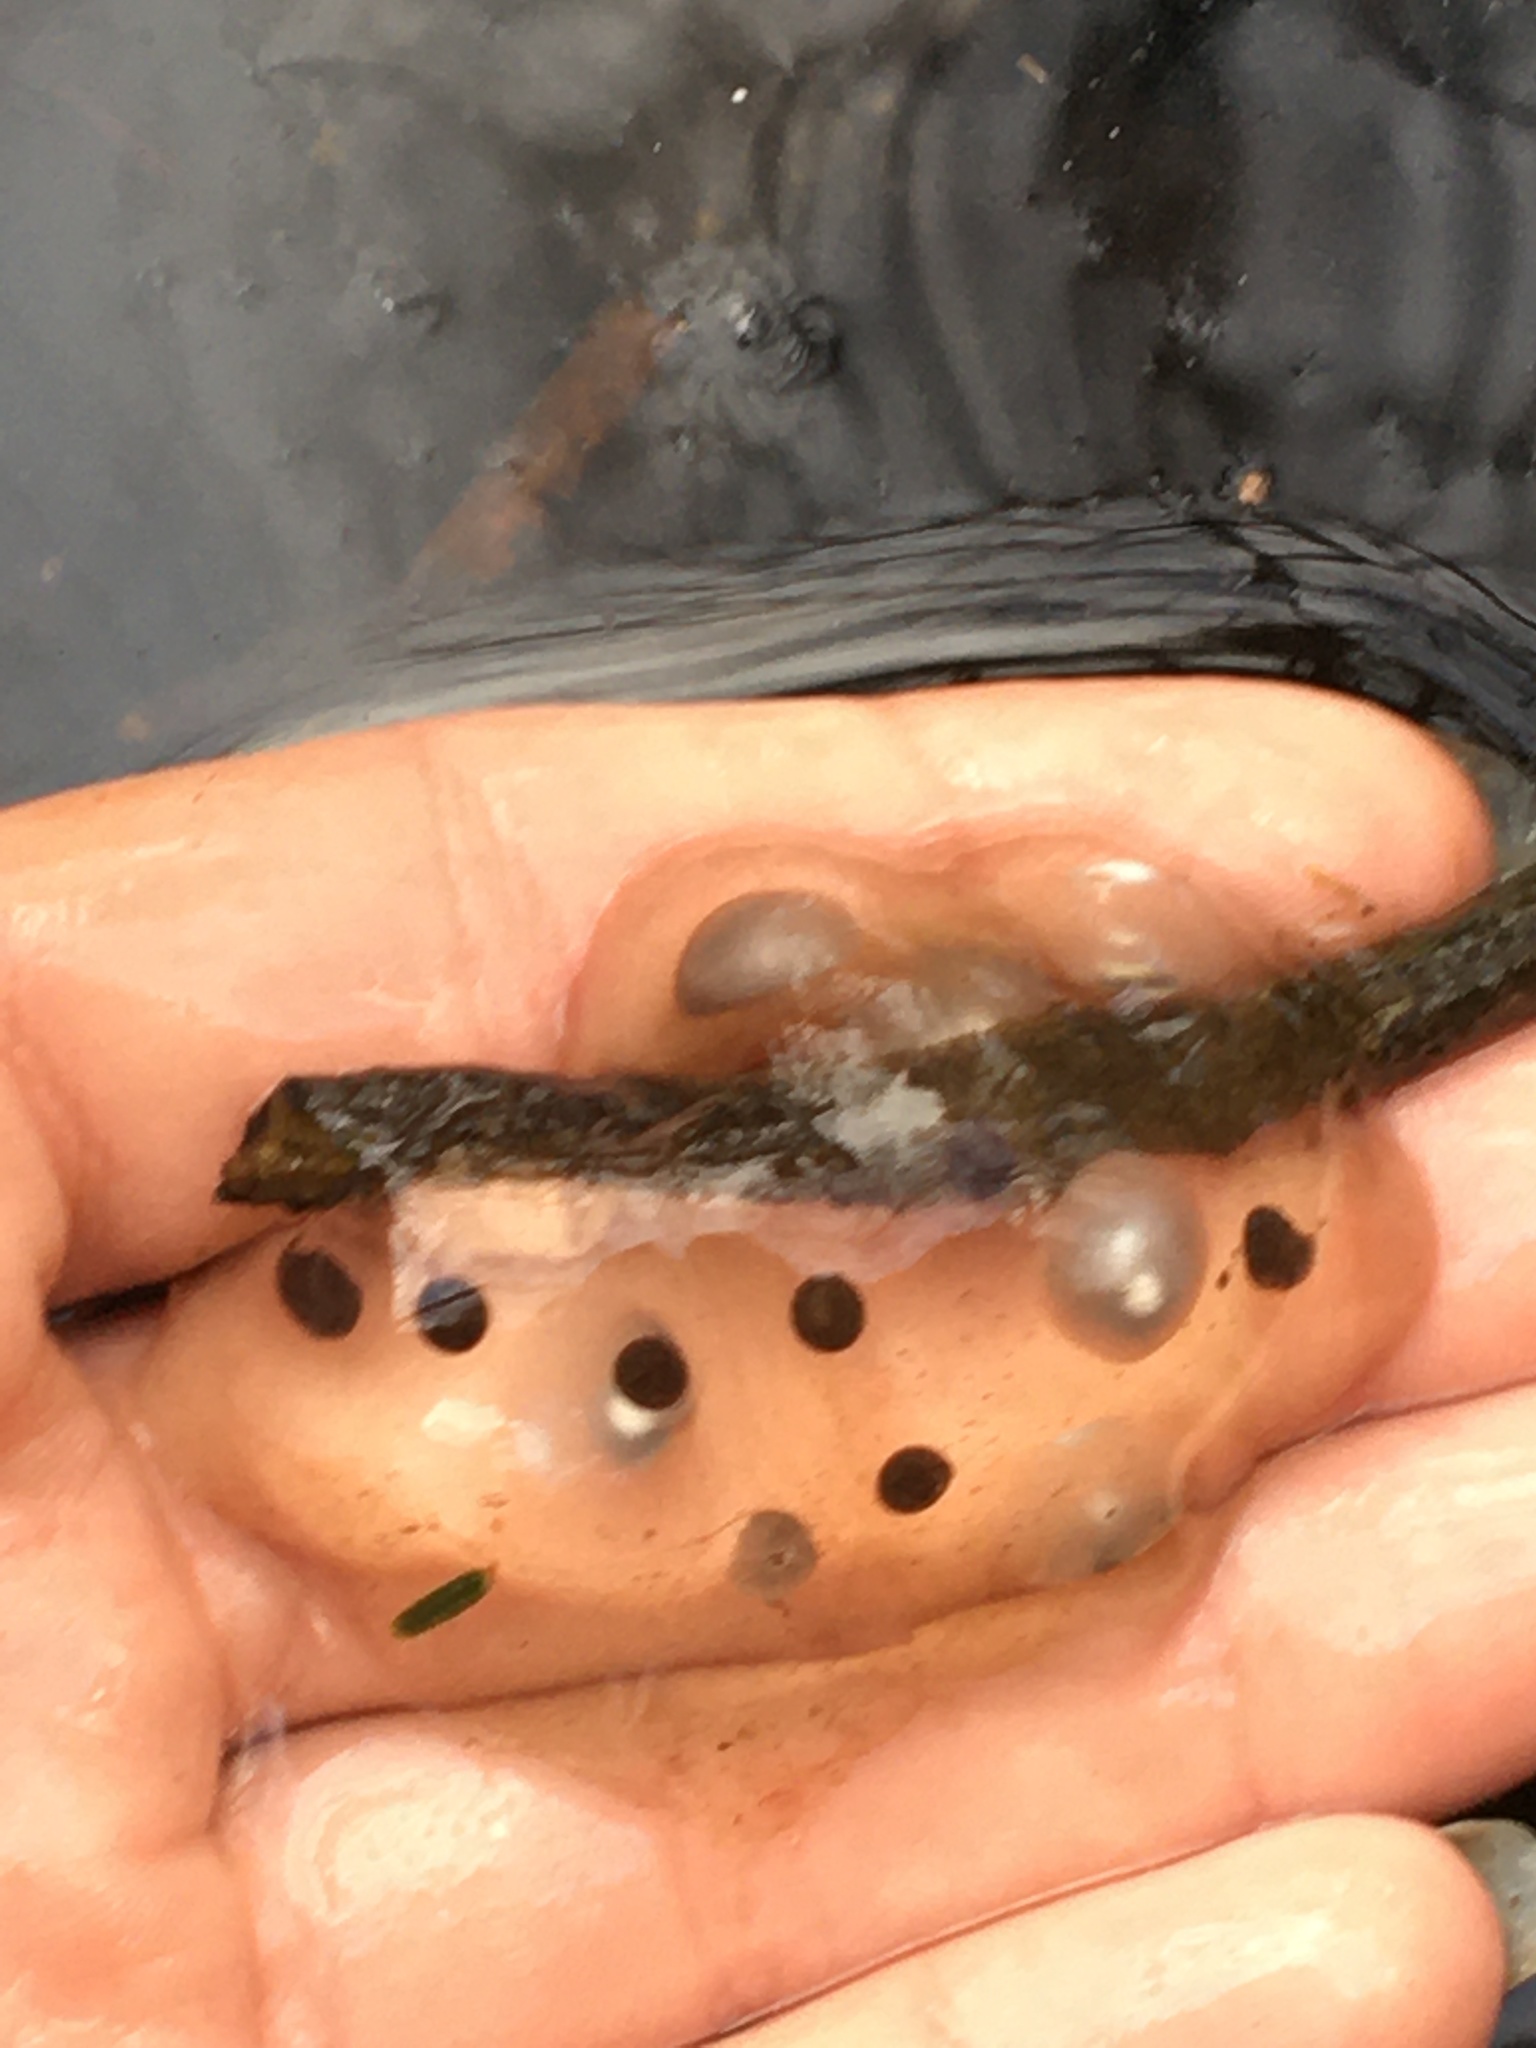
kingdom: Animalia
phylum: Chordata
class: Amphibia
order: Caudata
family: Ambystomatidae
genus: Ambystoma
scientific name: Ambystoma unisexual
